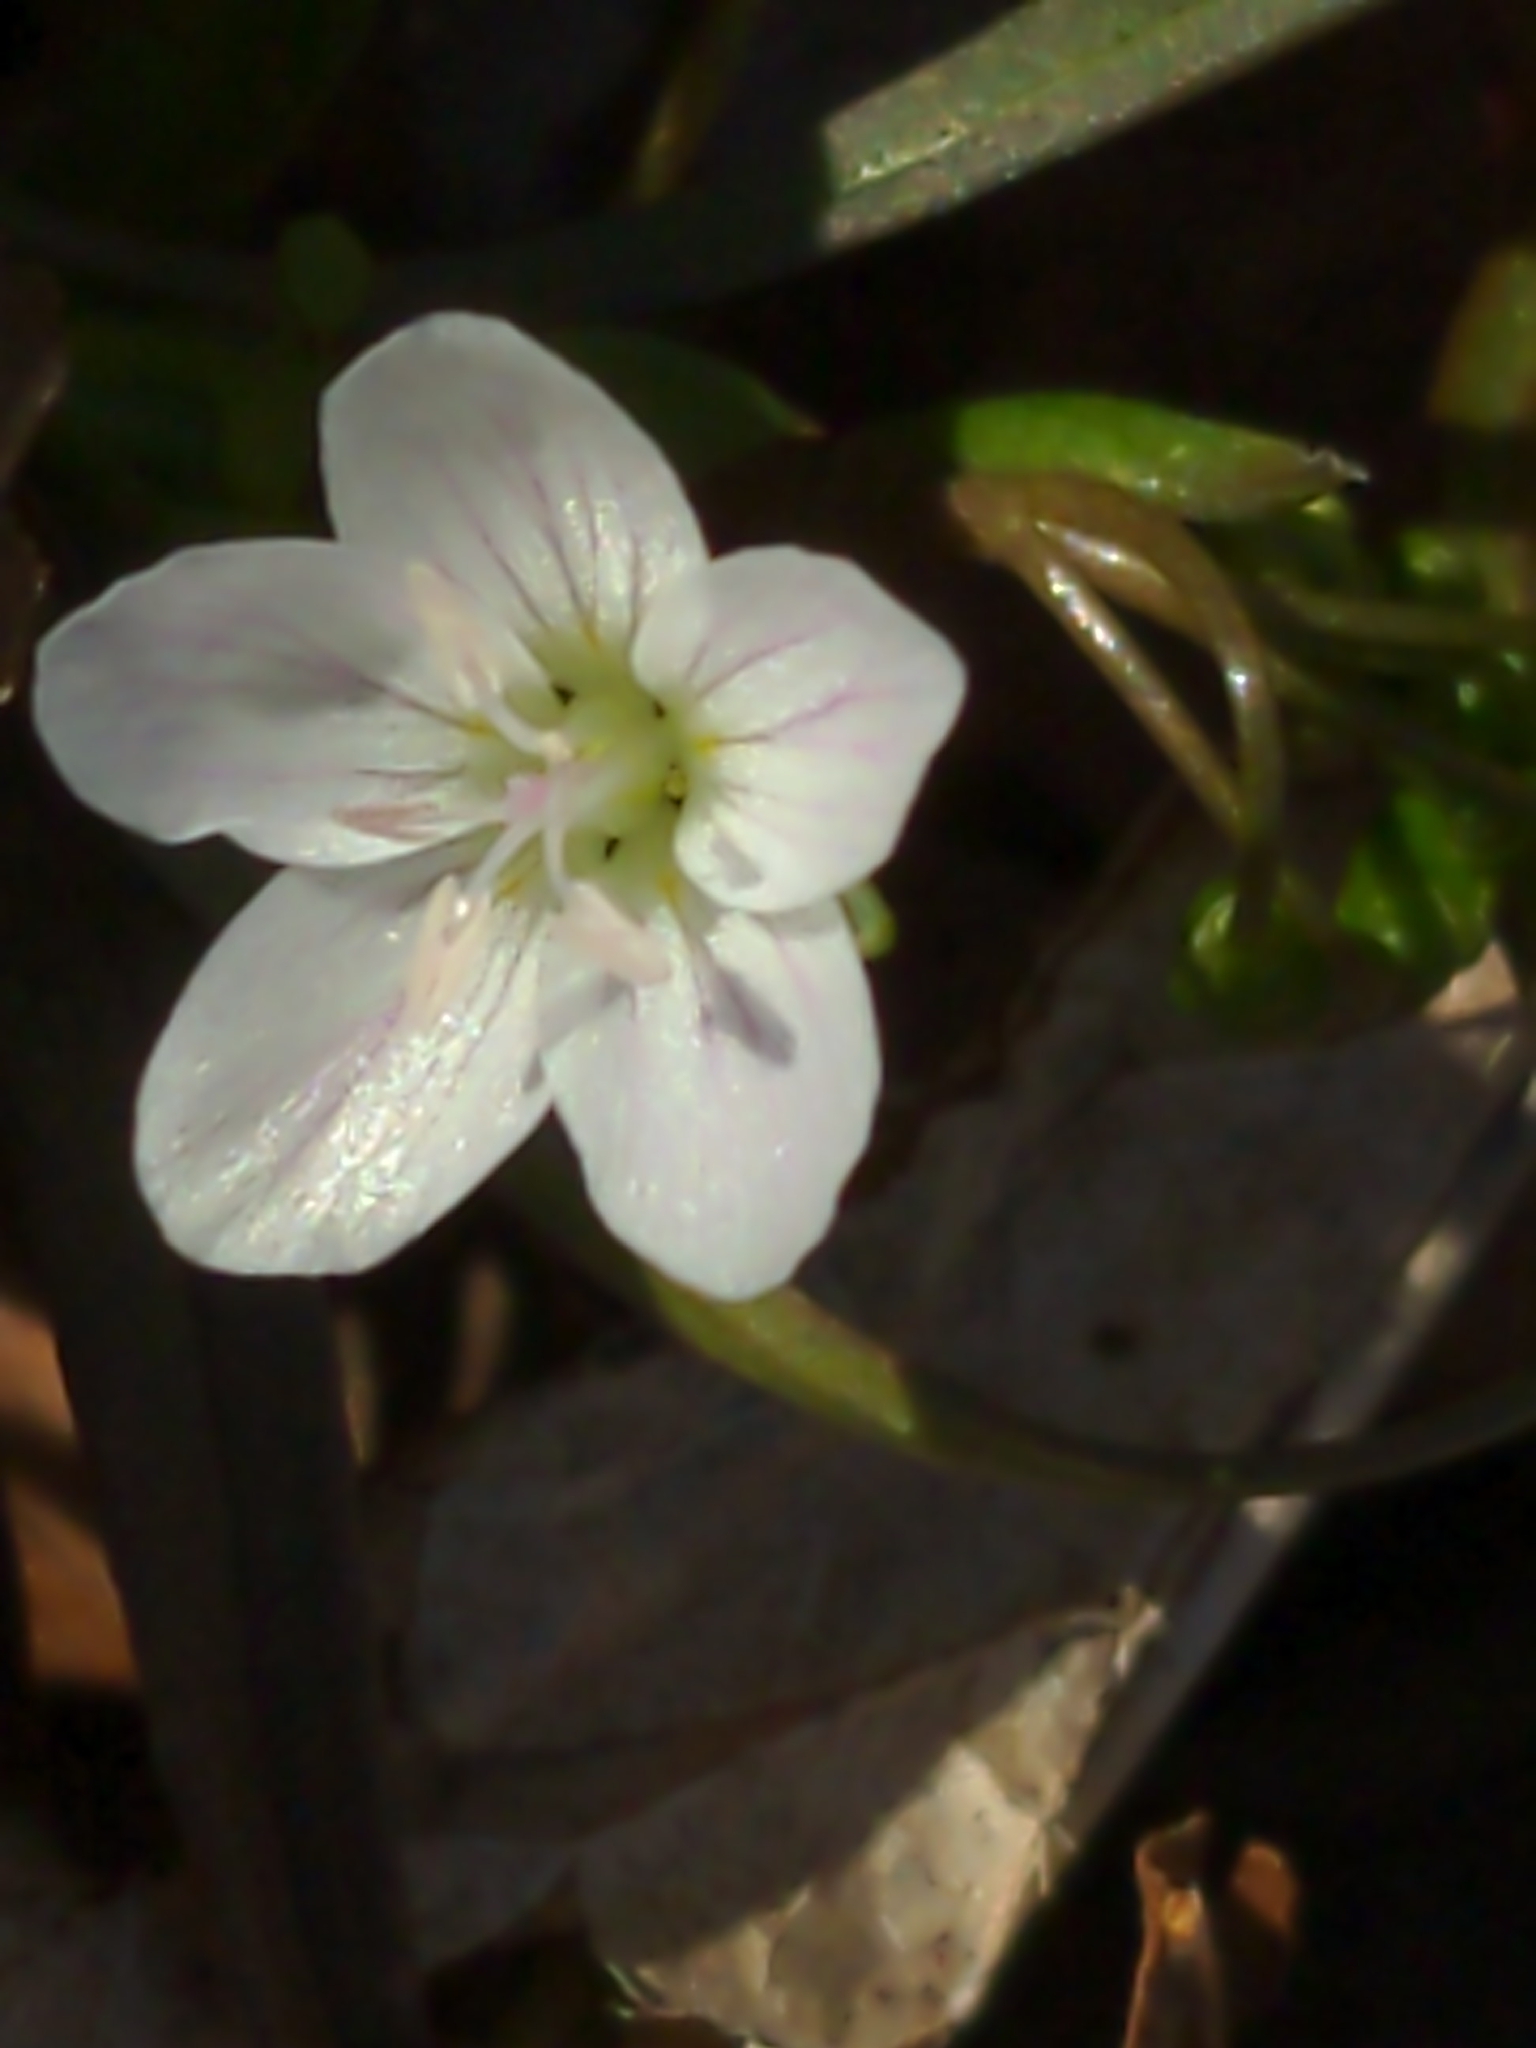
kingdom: Plantae
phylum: Tracheophyta
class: Magnoliopsida
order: Caryophyllales
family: Montiaceae
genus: Claytonia
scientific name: Claytonia virginica
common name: Virginia springbeauty
